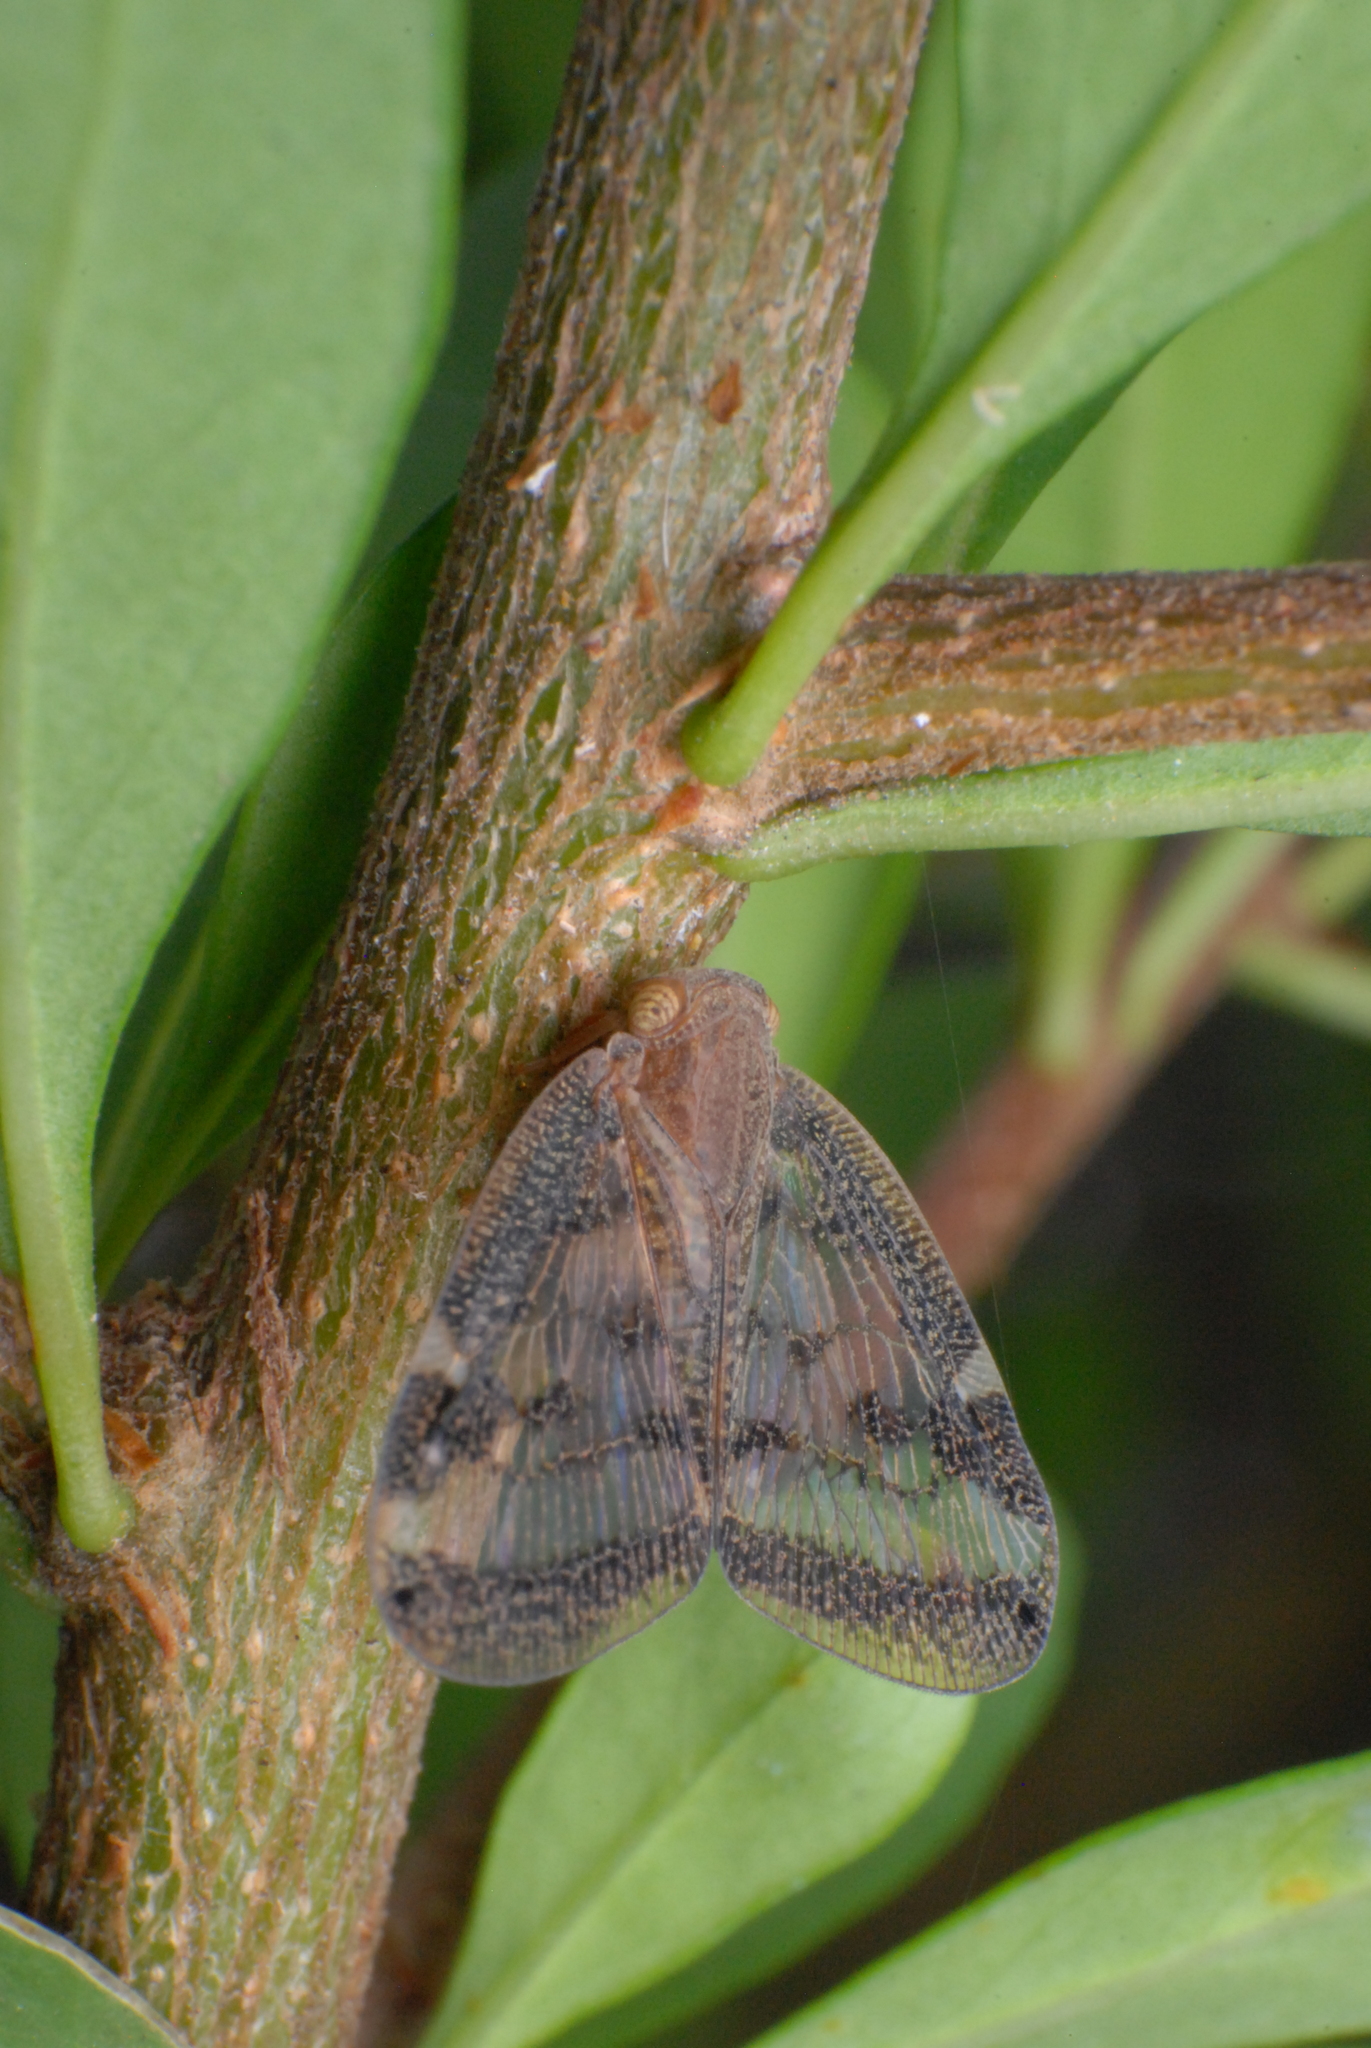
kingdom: Animalia
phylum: Arthropoda
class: Insecta
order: Hemiptera
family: Ricaniidae
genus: Scolypopa
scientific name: Scolypopa australis
